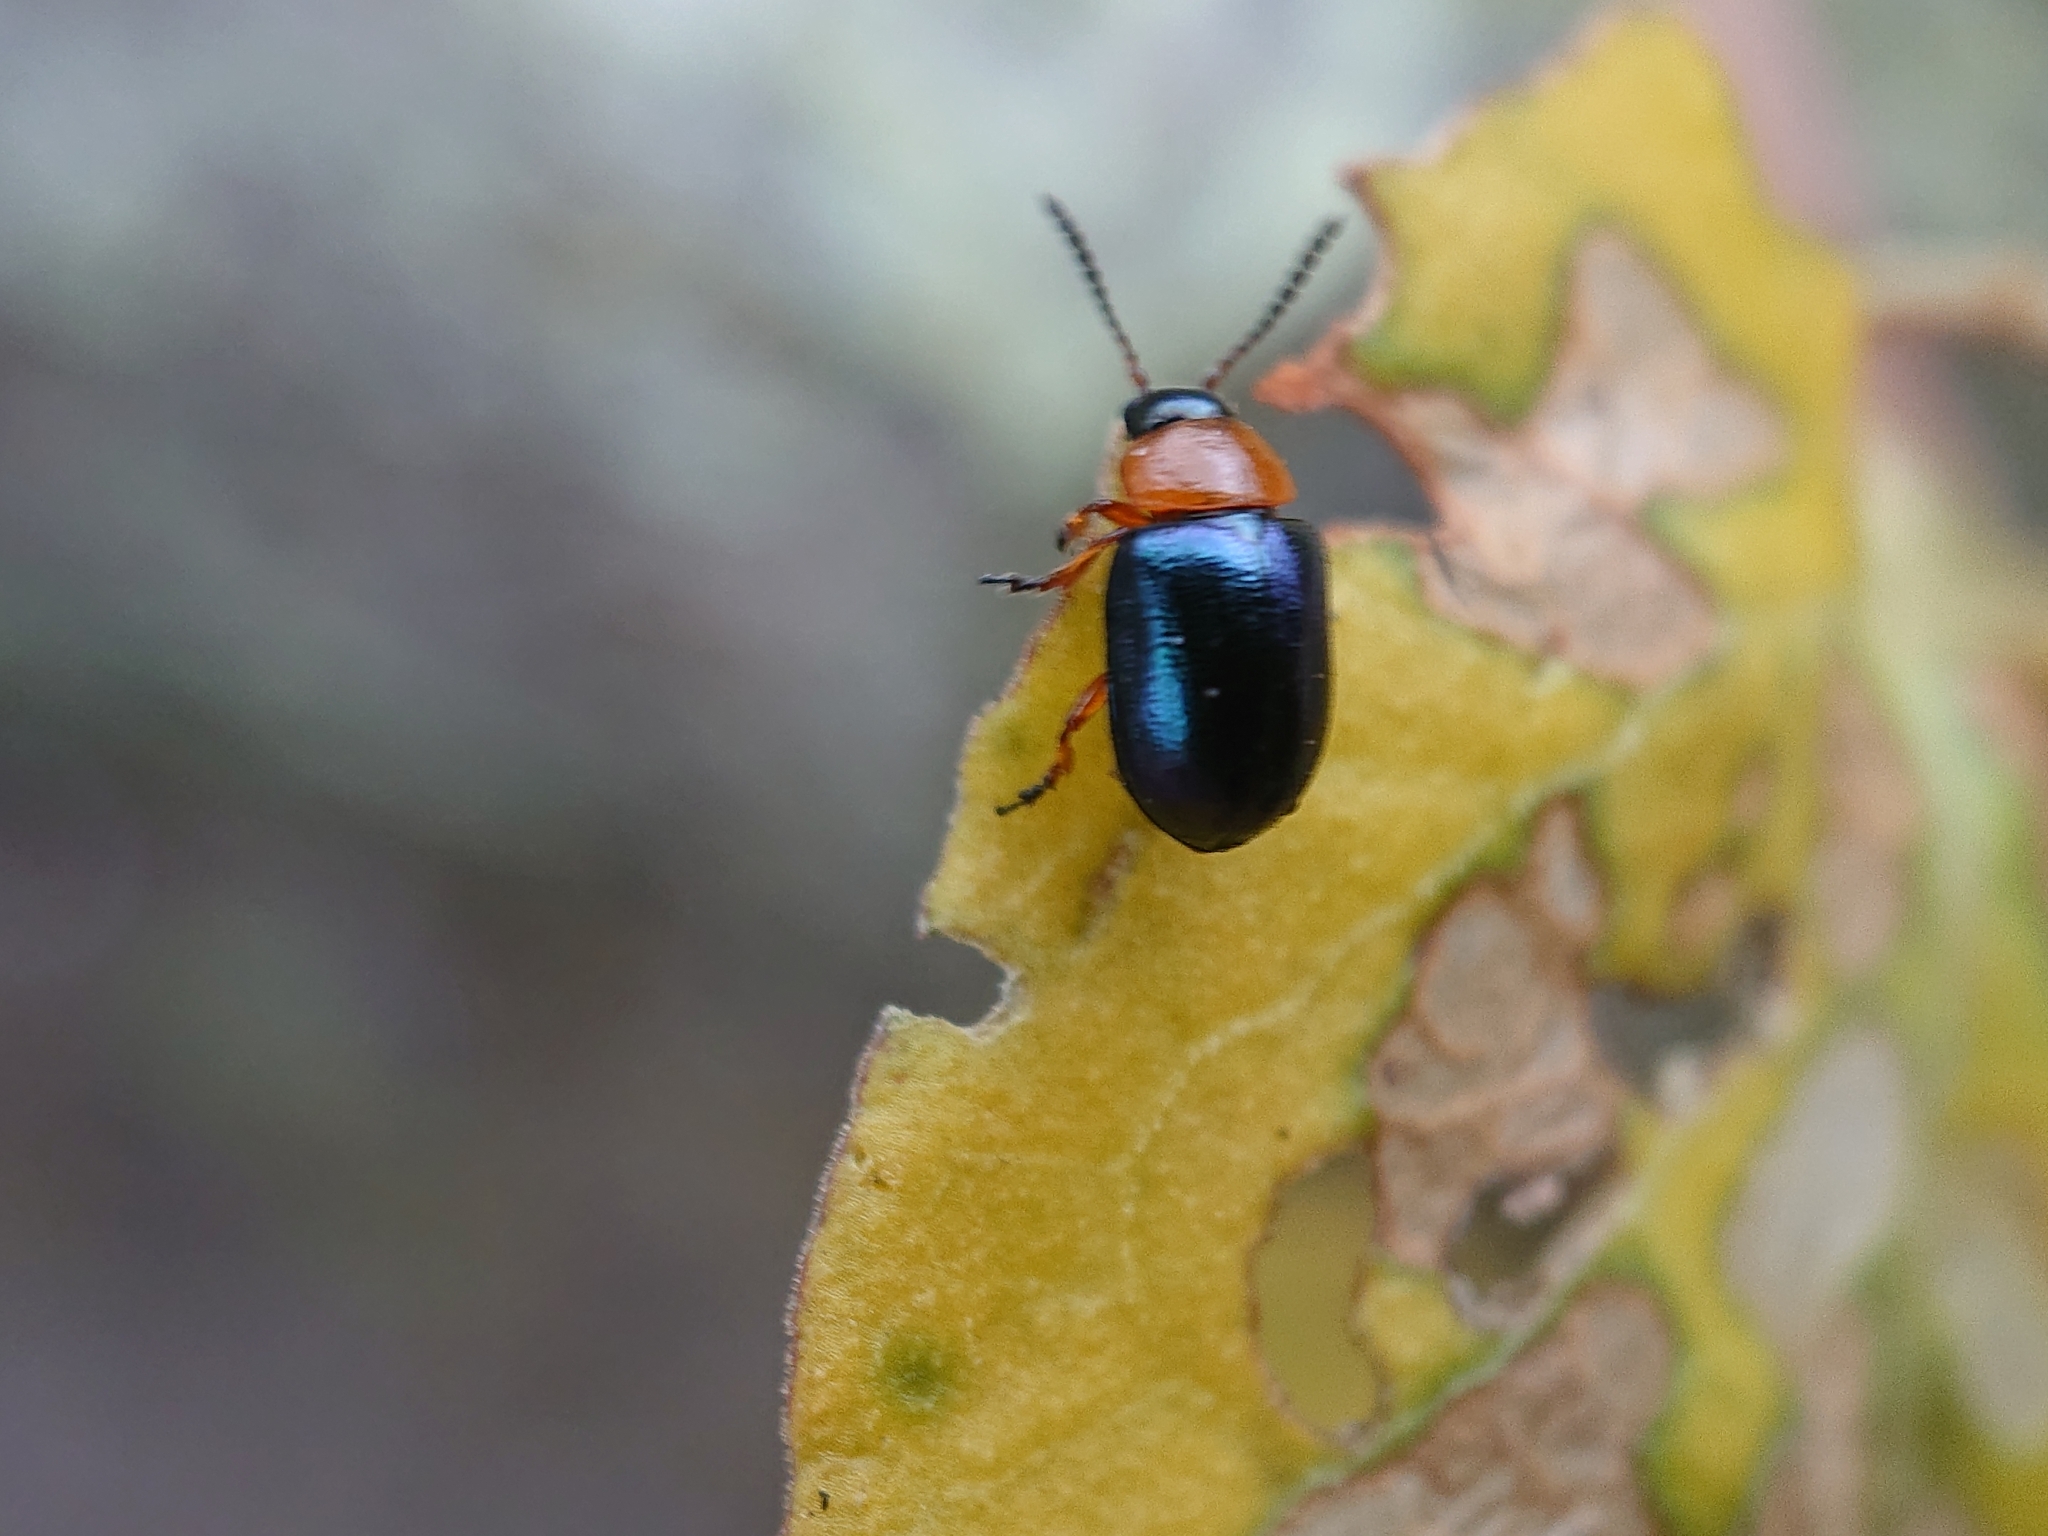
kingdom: Animalia
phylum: Arthropoda
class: Insecta
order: Coleoptera
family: Chrysomelidae
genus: Gastrophysa
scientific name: Gastrophysa polygoni
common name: Knotweed leaf beetle
